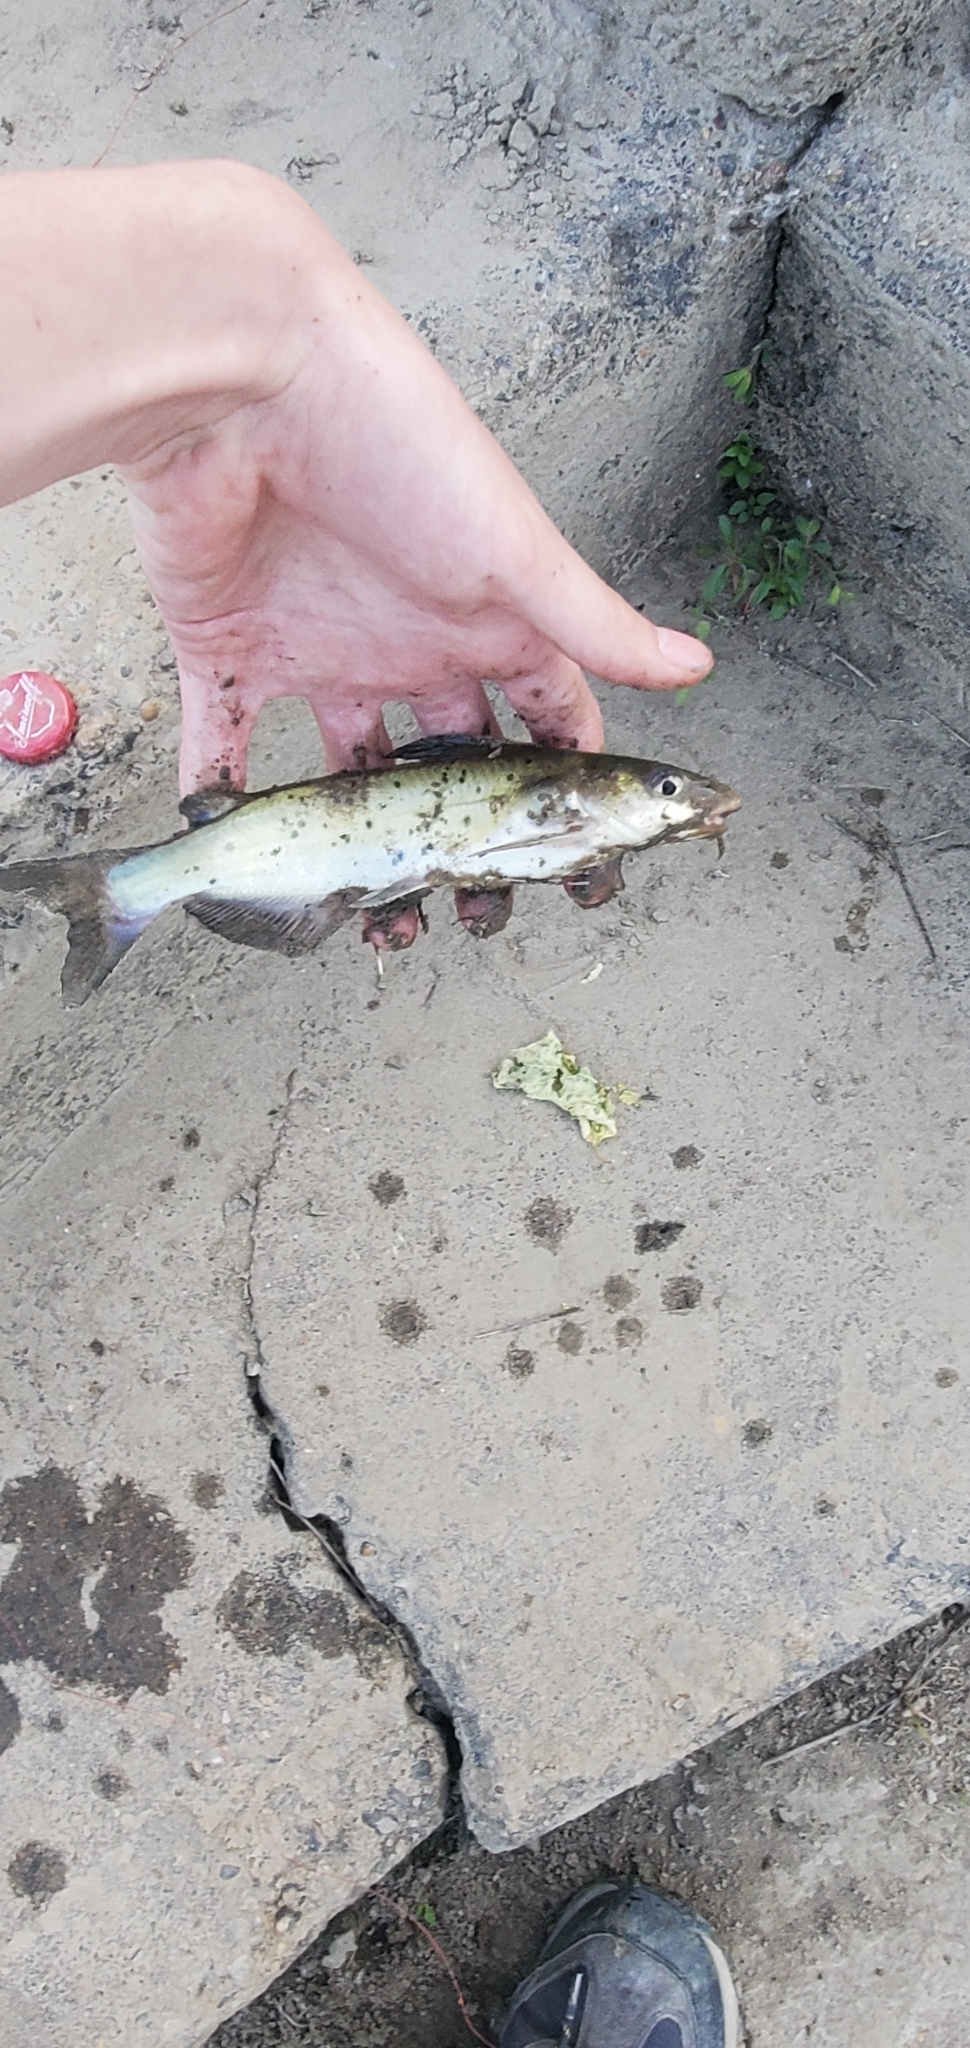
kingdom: Animalia
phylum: Chordata
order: Siluriformes
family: Ictaluridae
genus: Ictalurus
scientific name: Ictalurus punctatus
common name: Channel catfish
